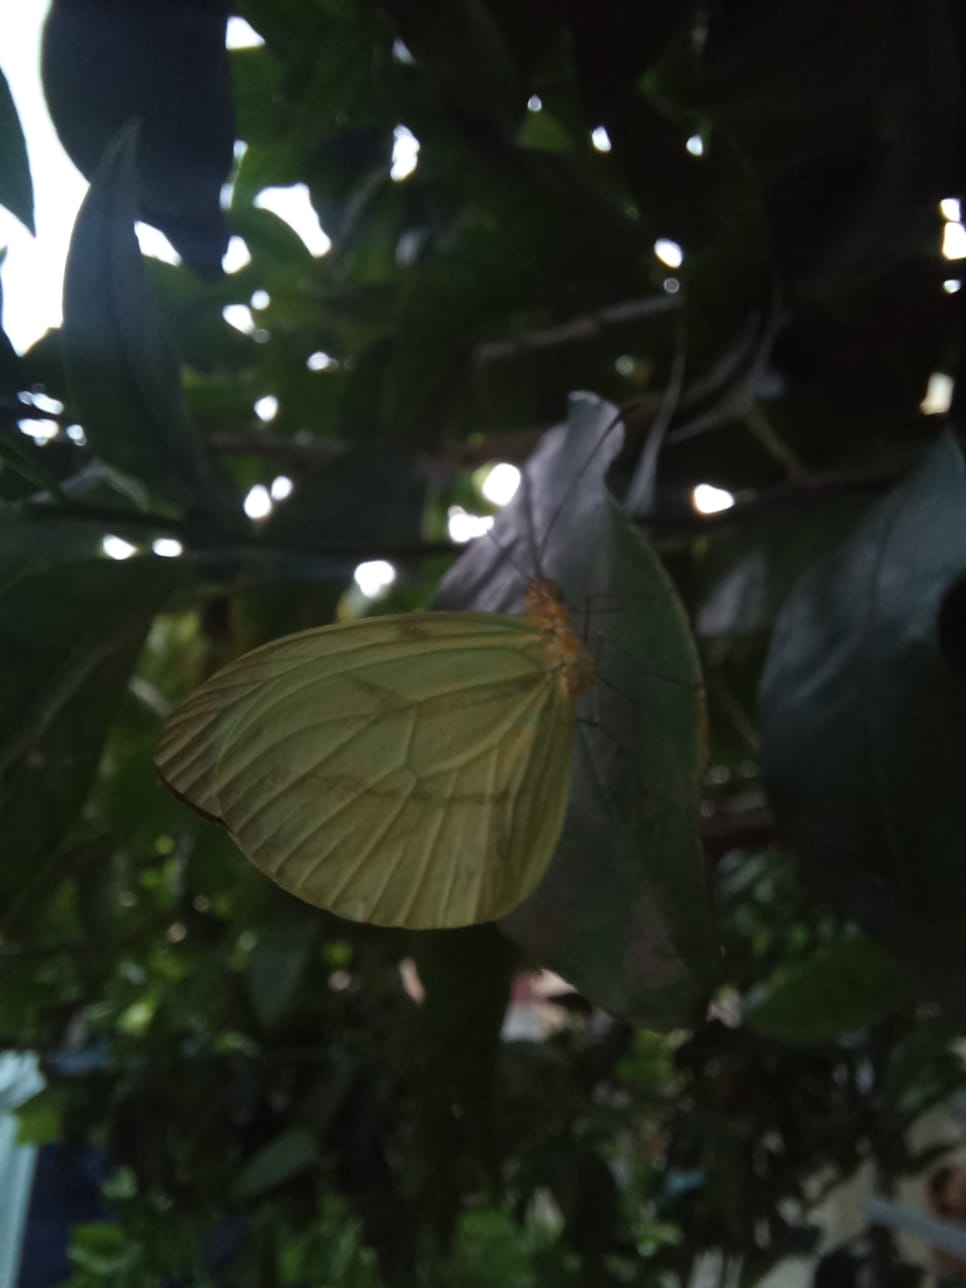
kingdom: Animalia
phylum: Arthropoda
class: Insecta
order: Lepidoptera
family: Pieridae
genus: Enantia
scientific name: Enantia lina
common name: White mimic-white
